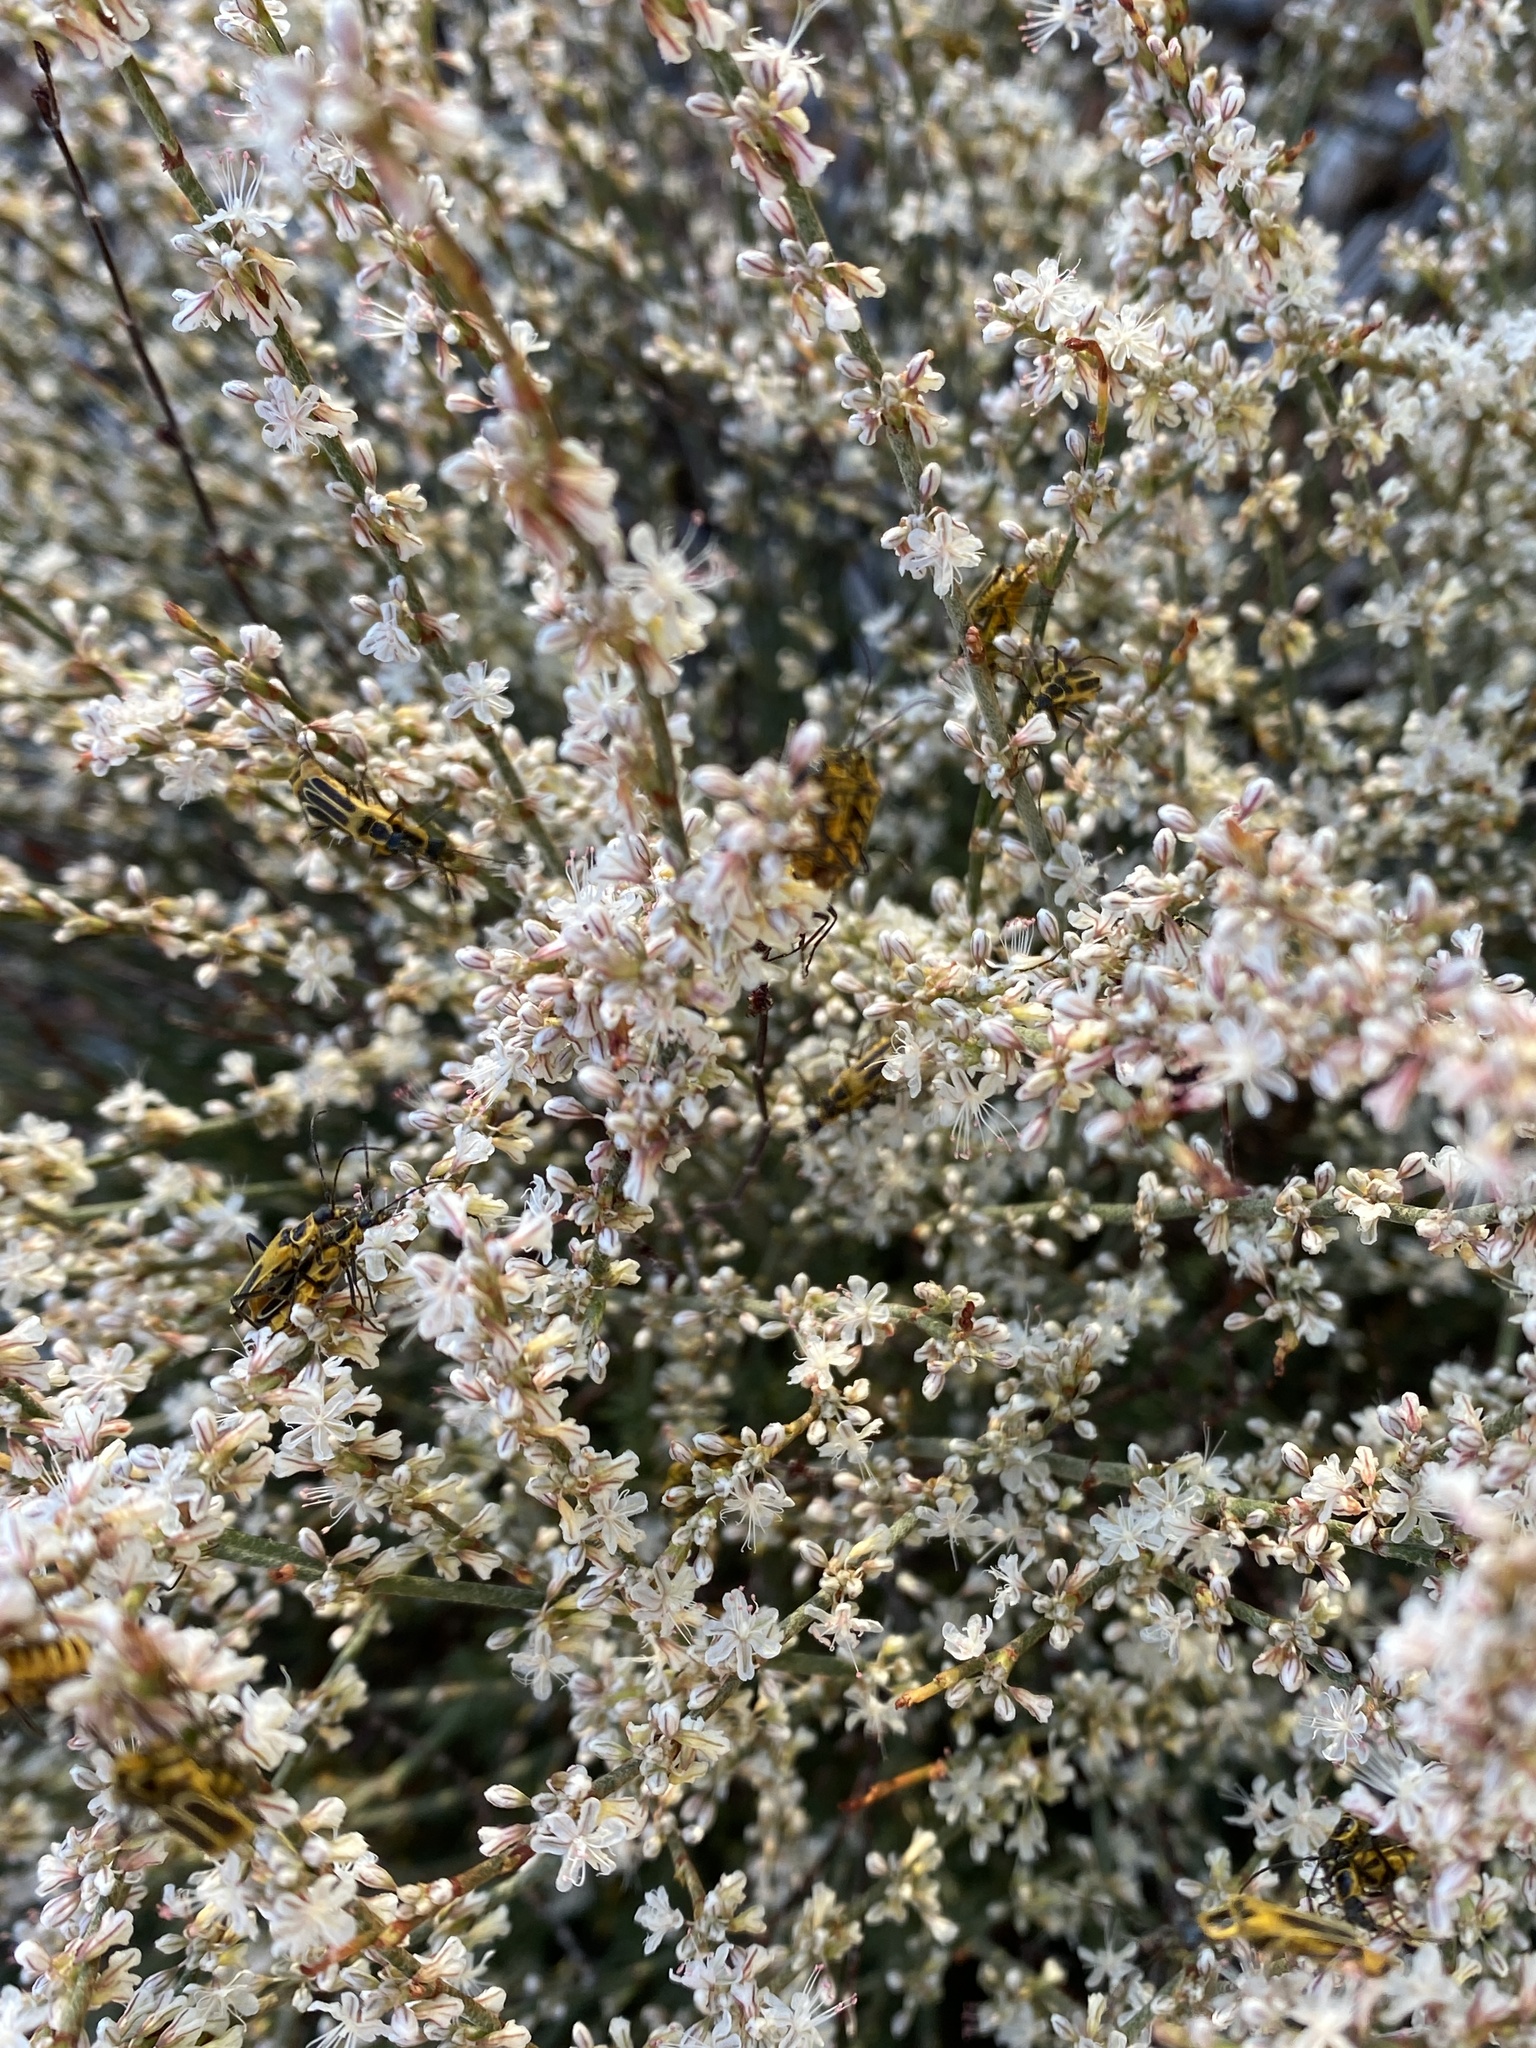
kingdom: Animalia
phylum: Arthropoda
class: Insecta
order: Coleoptera
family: Cantharidae
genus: Chauliognathus
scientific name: Chauliognathus lewisi
